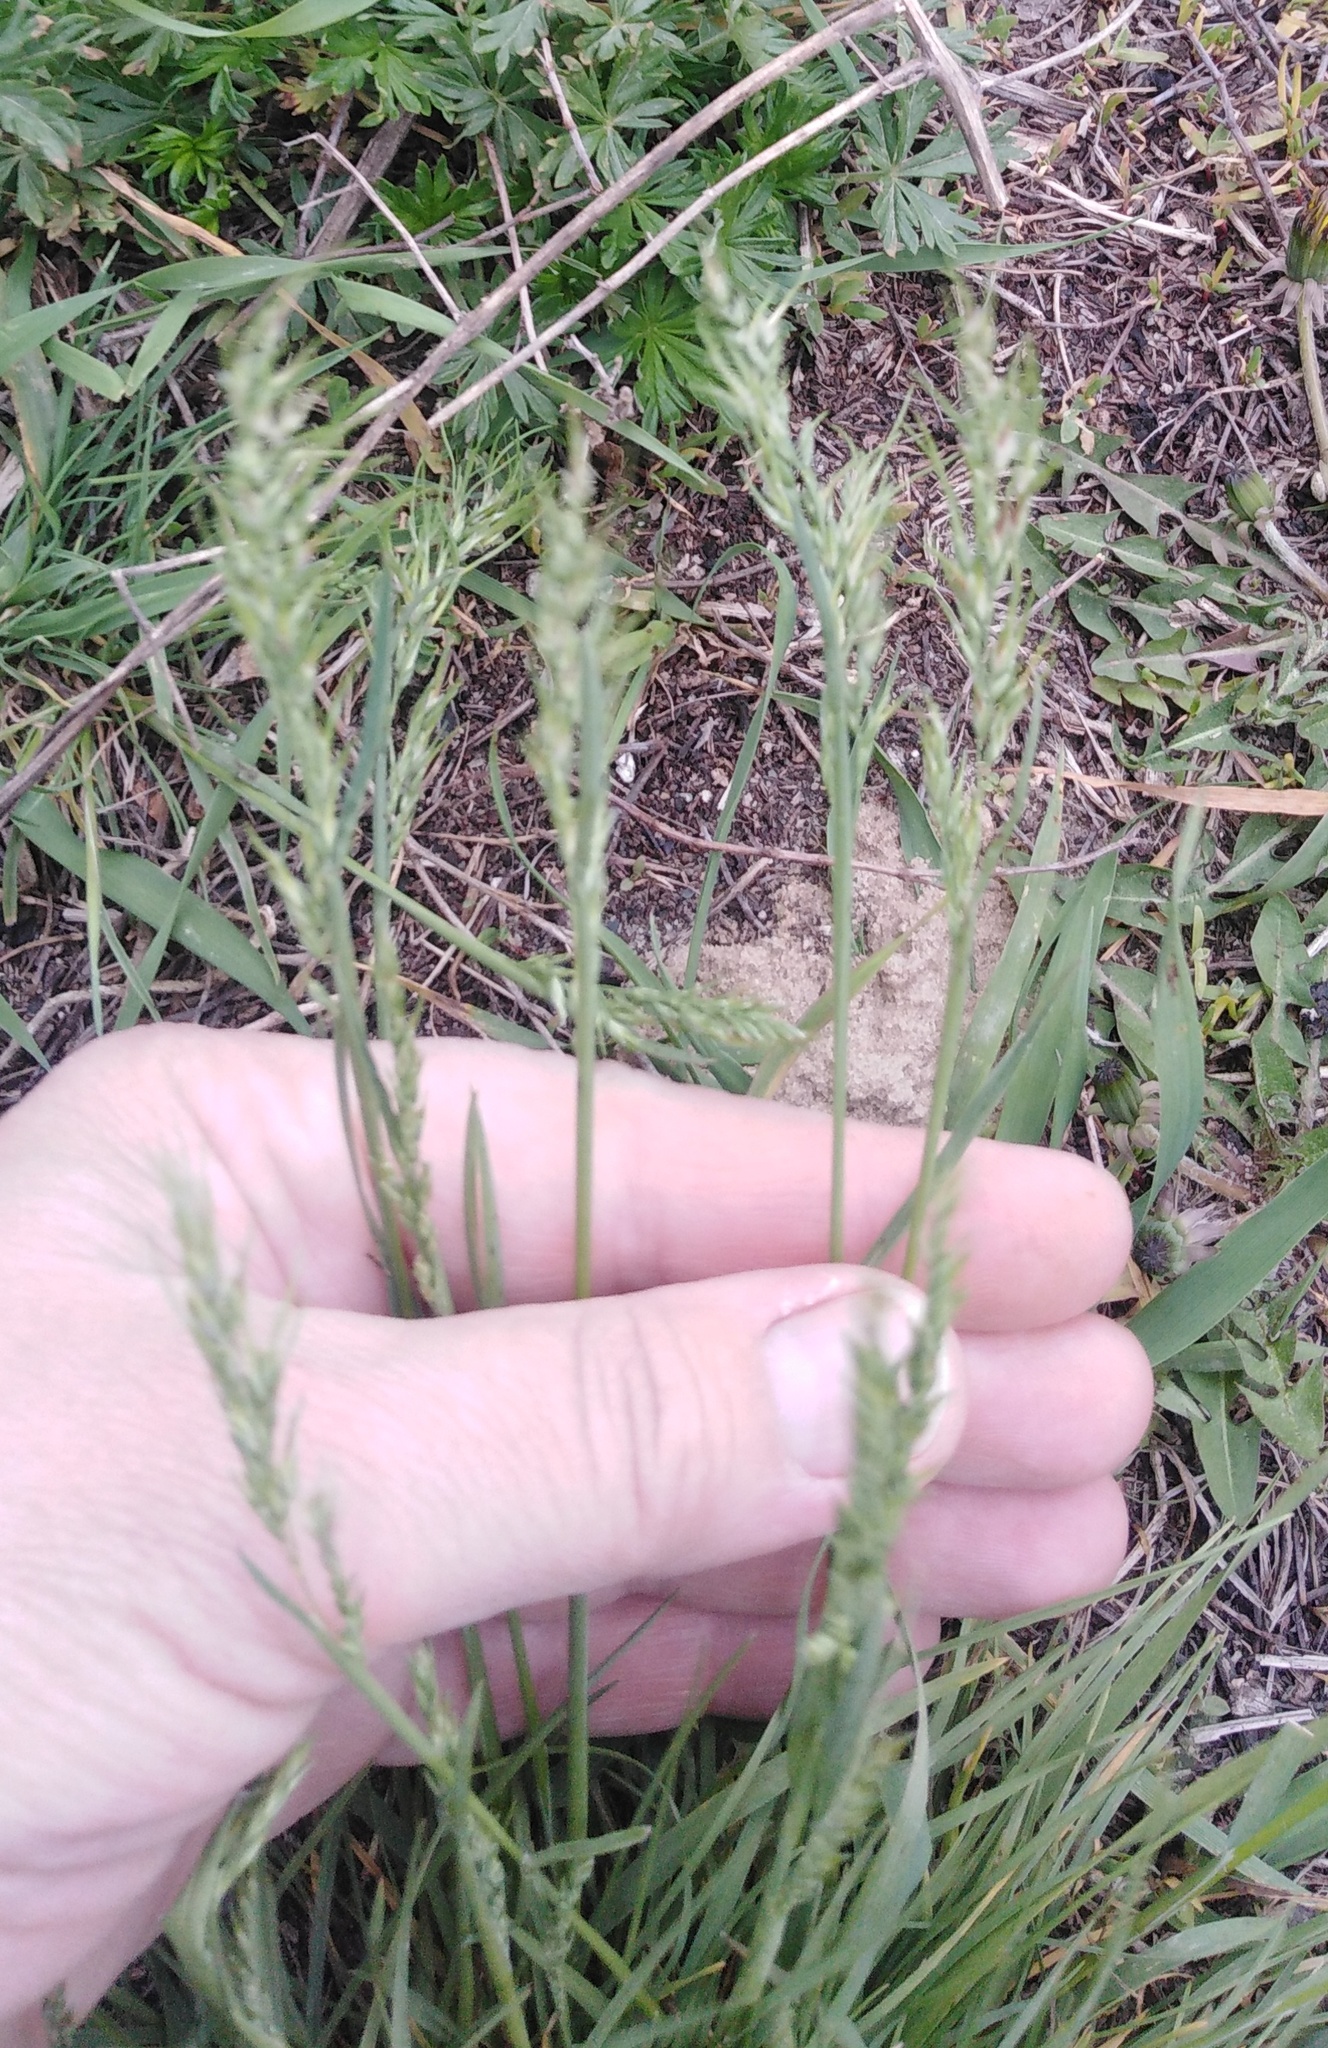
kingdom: Plantae
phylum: Tracheophyta
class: Liliopsida
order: Poales
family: Poaceae
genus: Poa
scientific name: Poa bulbosa
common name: Bulbous bluegrass
